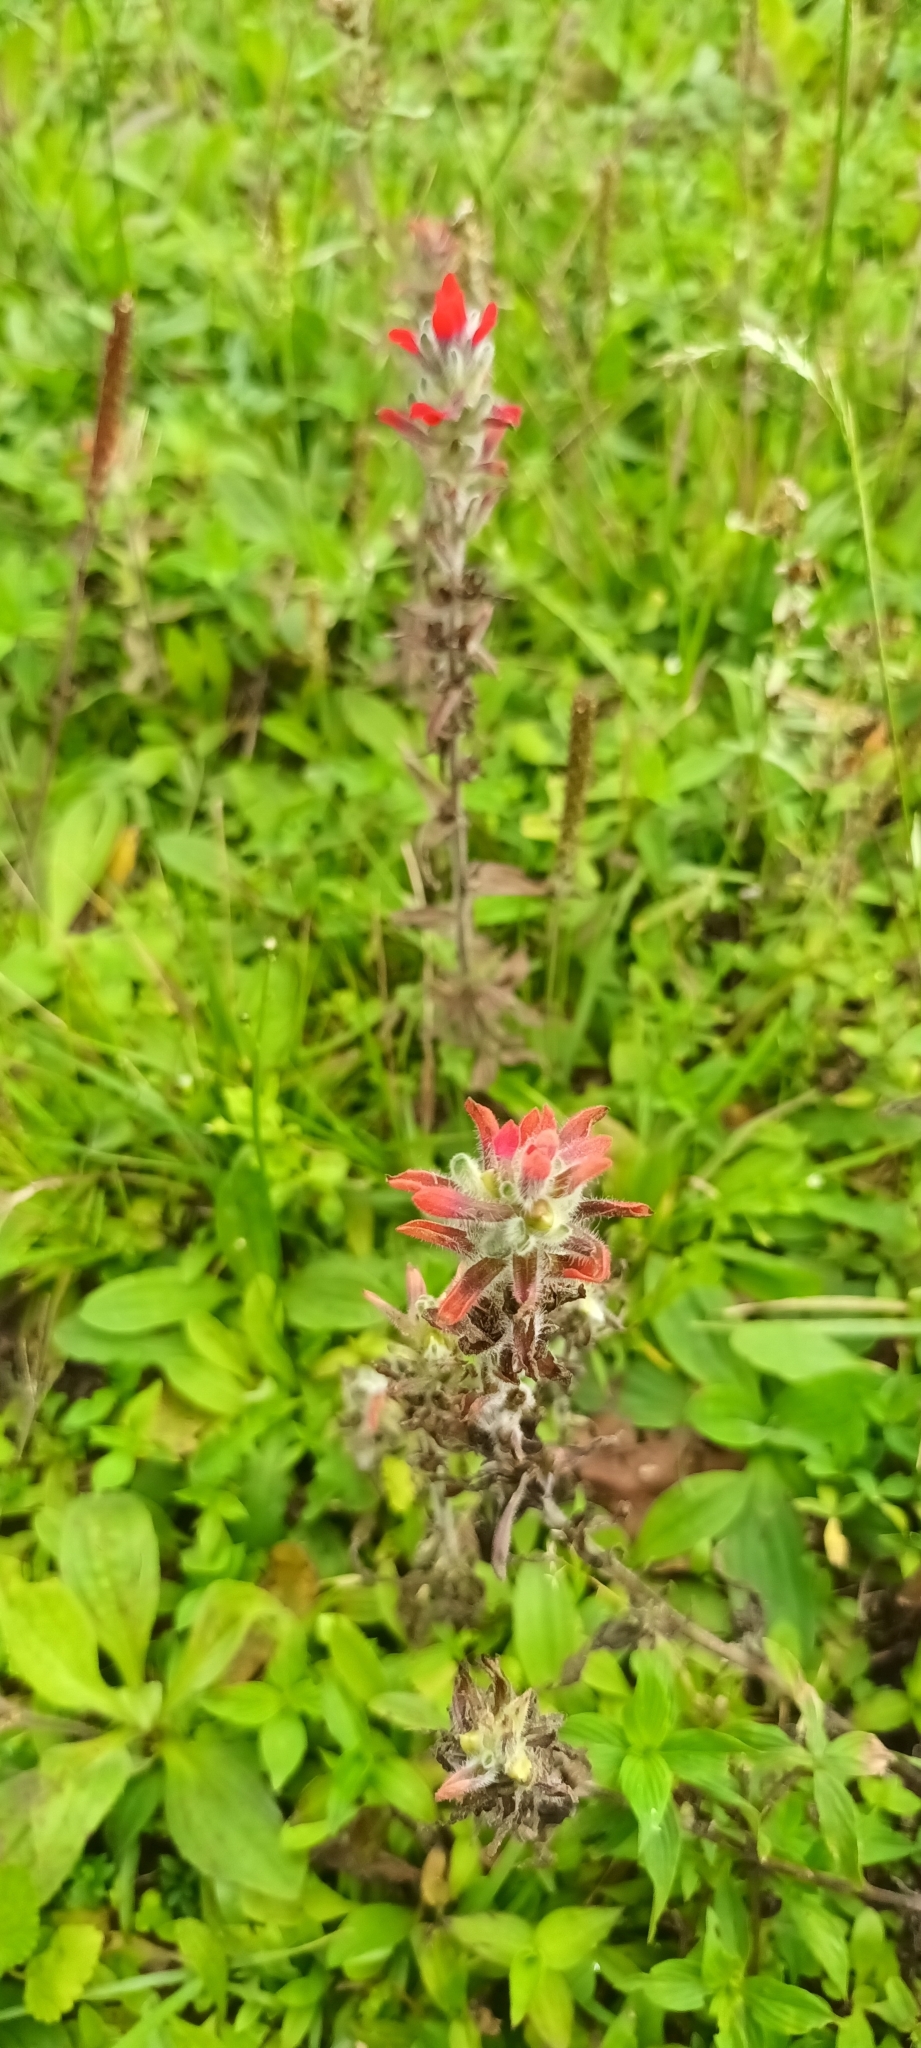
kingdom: Plantae
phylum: Tracheophyta
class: Magnoliopsida
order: Lamiales
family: Orobanchaceae
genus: Castilleja
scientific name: Castilleja arvensis
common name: Indian paintbrush
